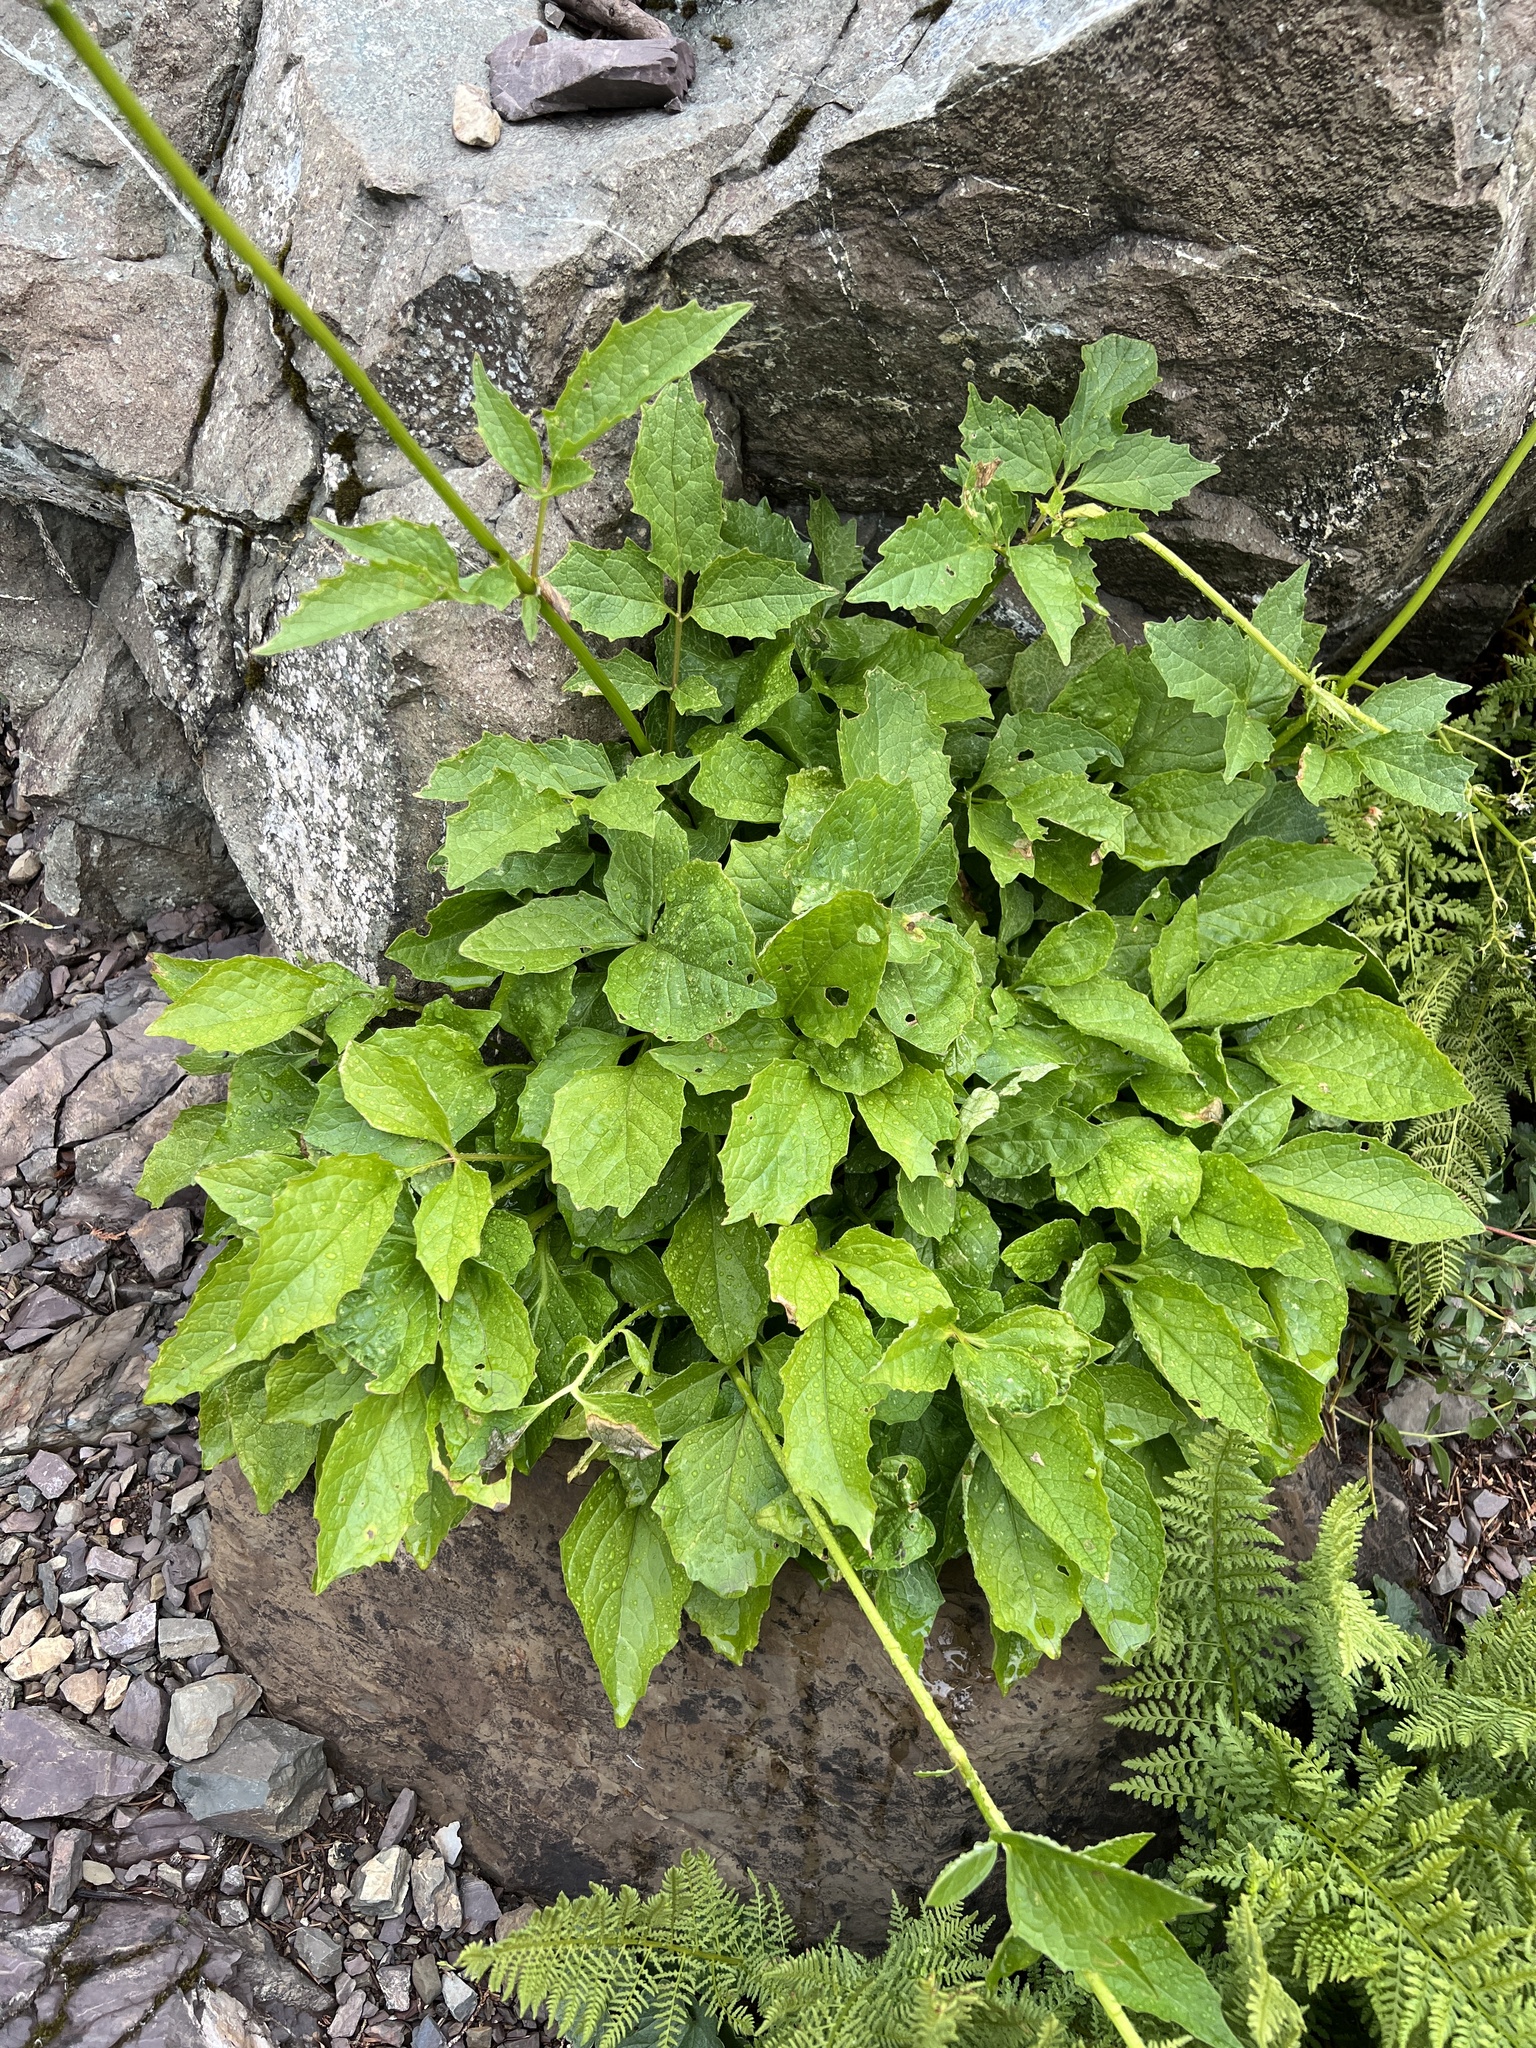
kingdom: Plantae
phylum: Tracheophyta
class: Magnoliopsida
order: Dipsacales
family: Caprifoliaceae
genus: Valeriana
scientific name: Valeriana scouleri
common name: Scouler's valerian
